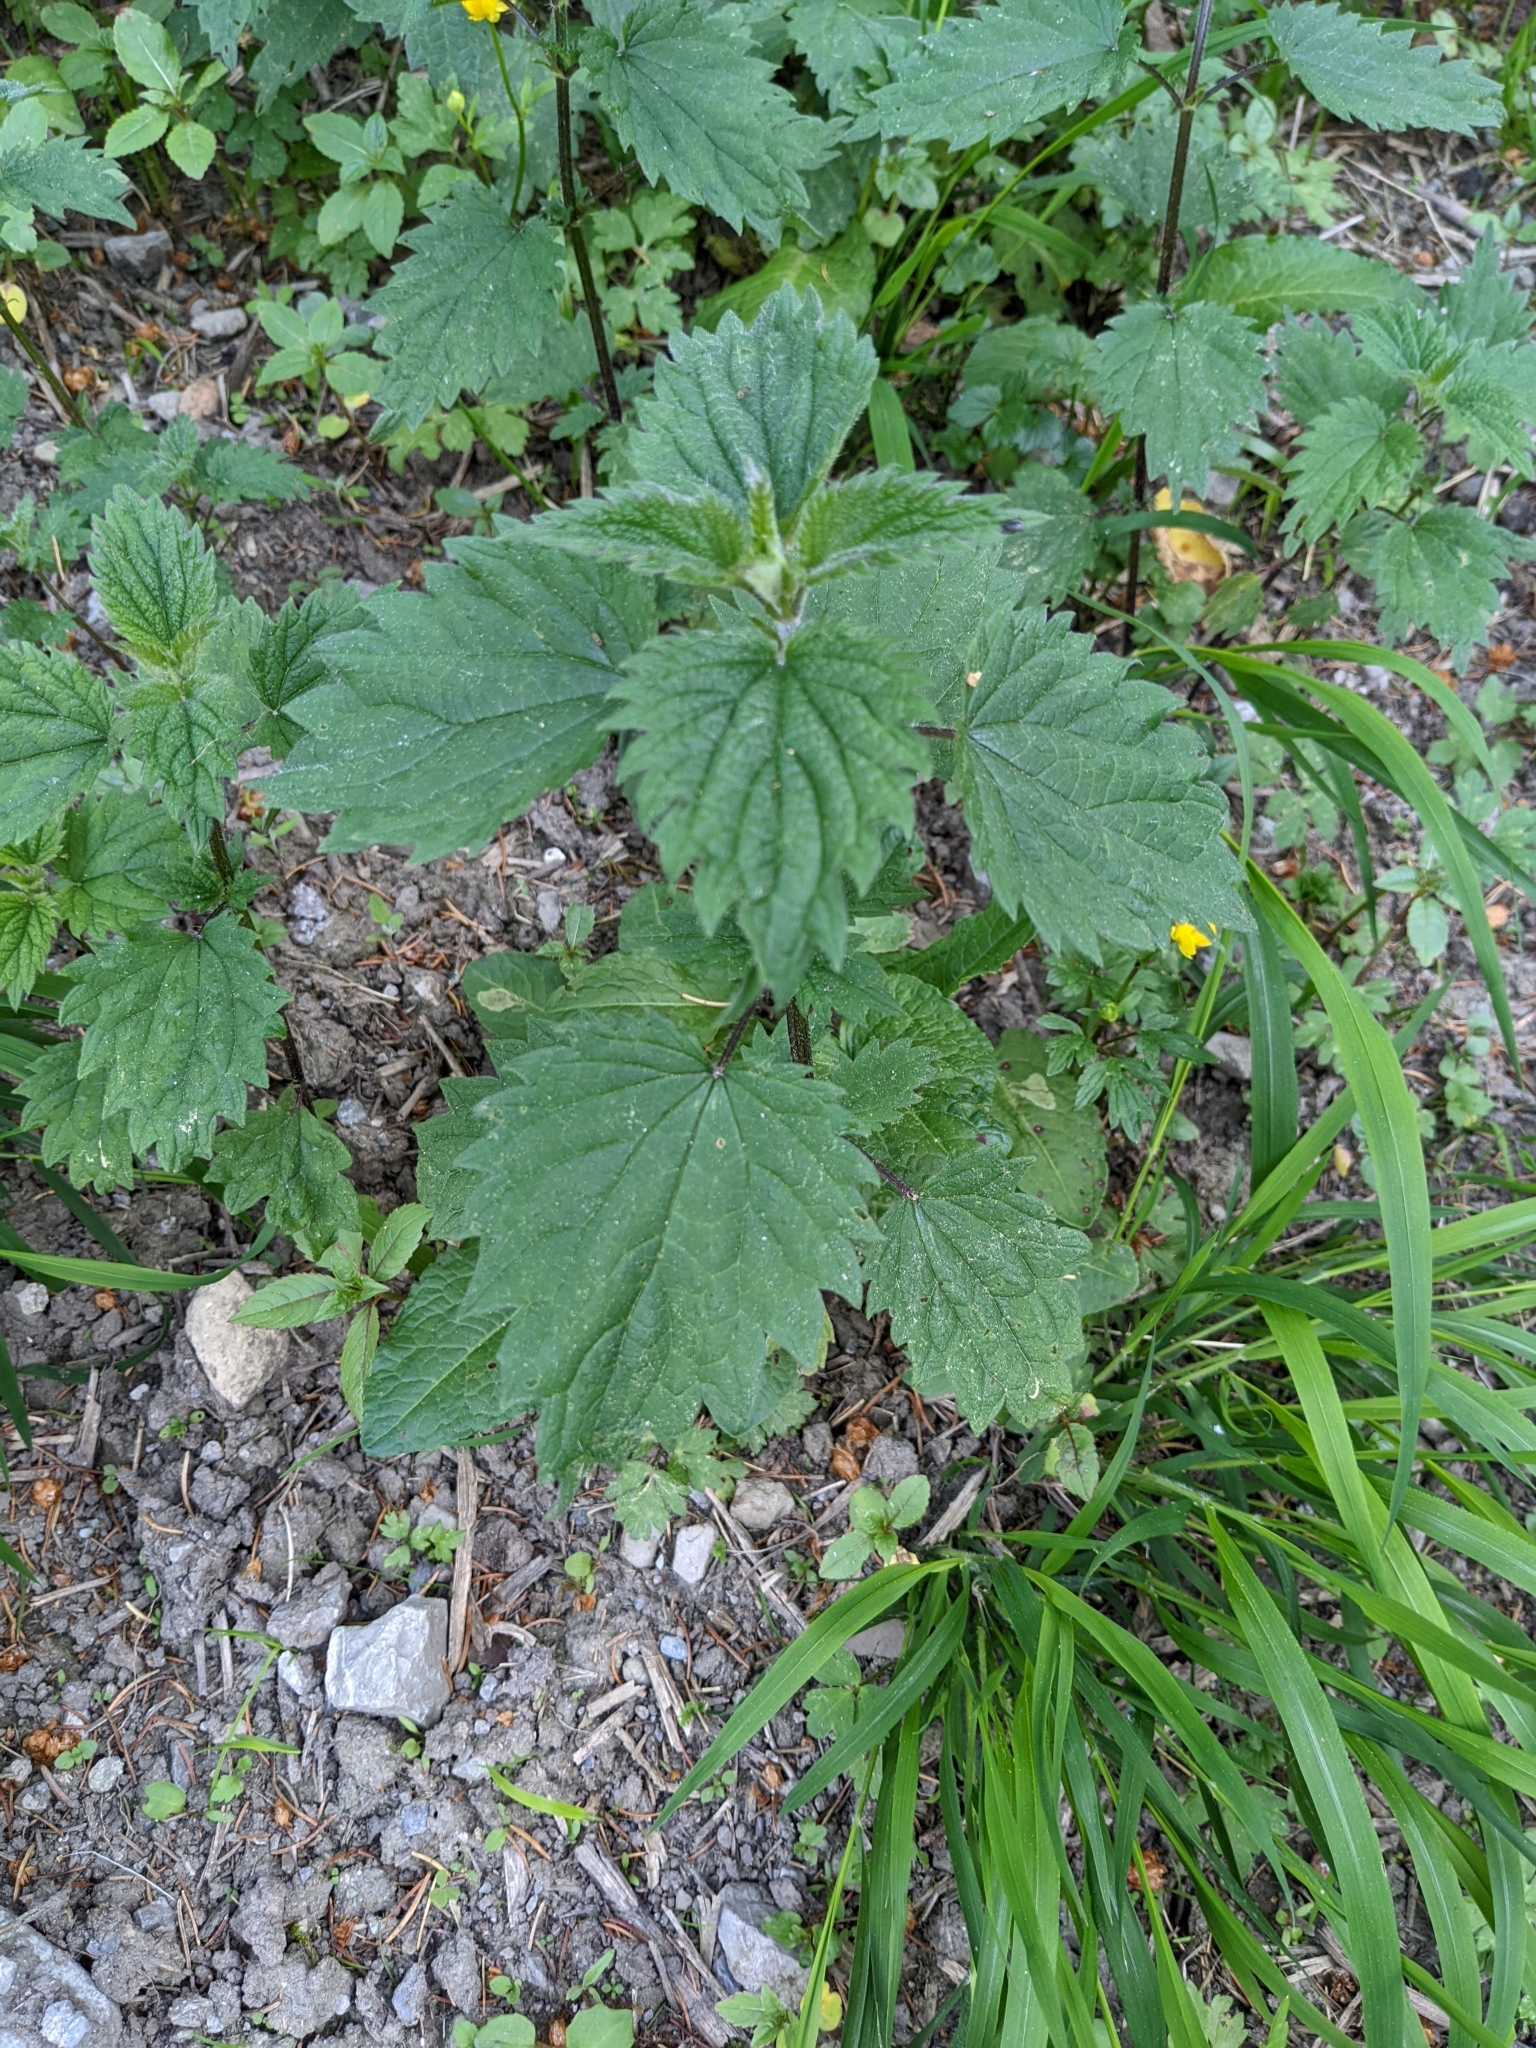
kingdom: Plantae
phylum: Tracheophyta
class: Magnoliopsida
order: Rosales
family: Urticaceae
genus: Urtica
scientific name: Urtica dioica
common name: Common nettle
